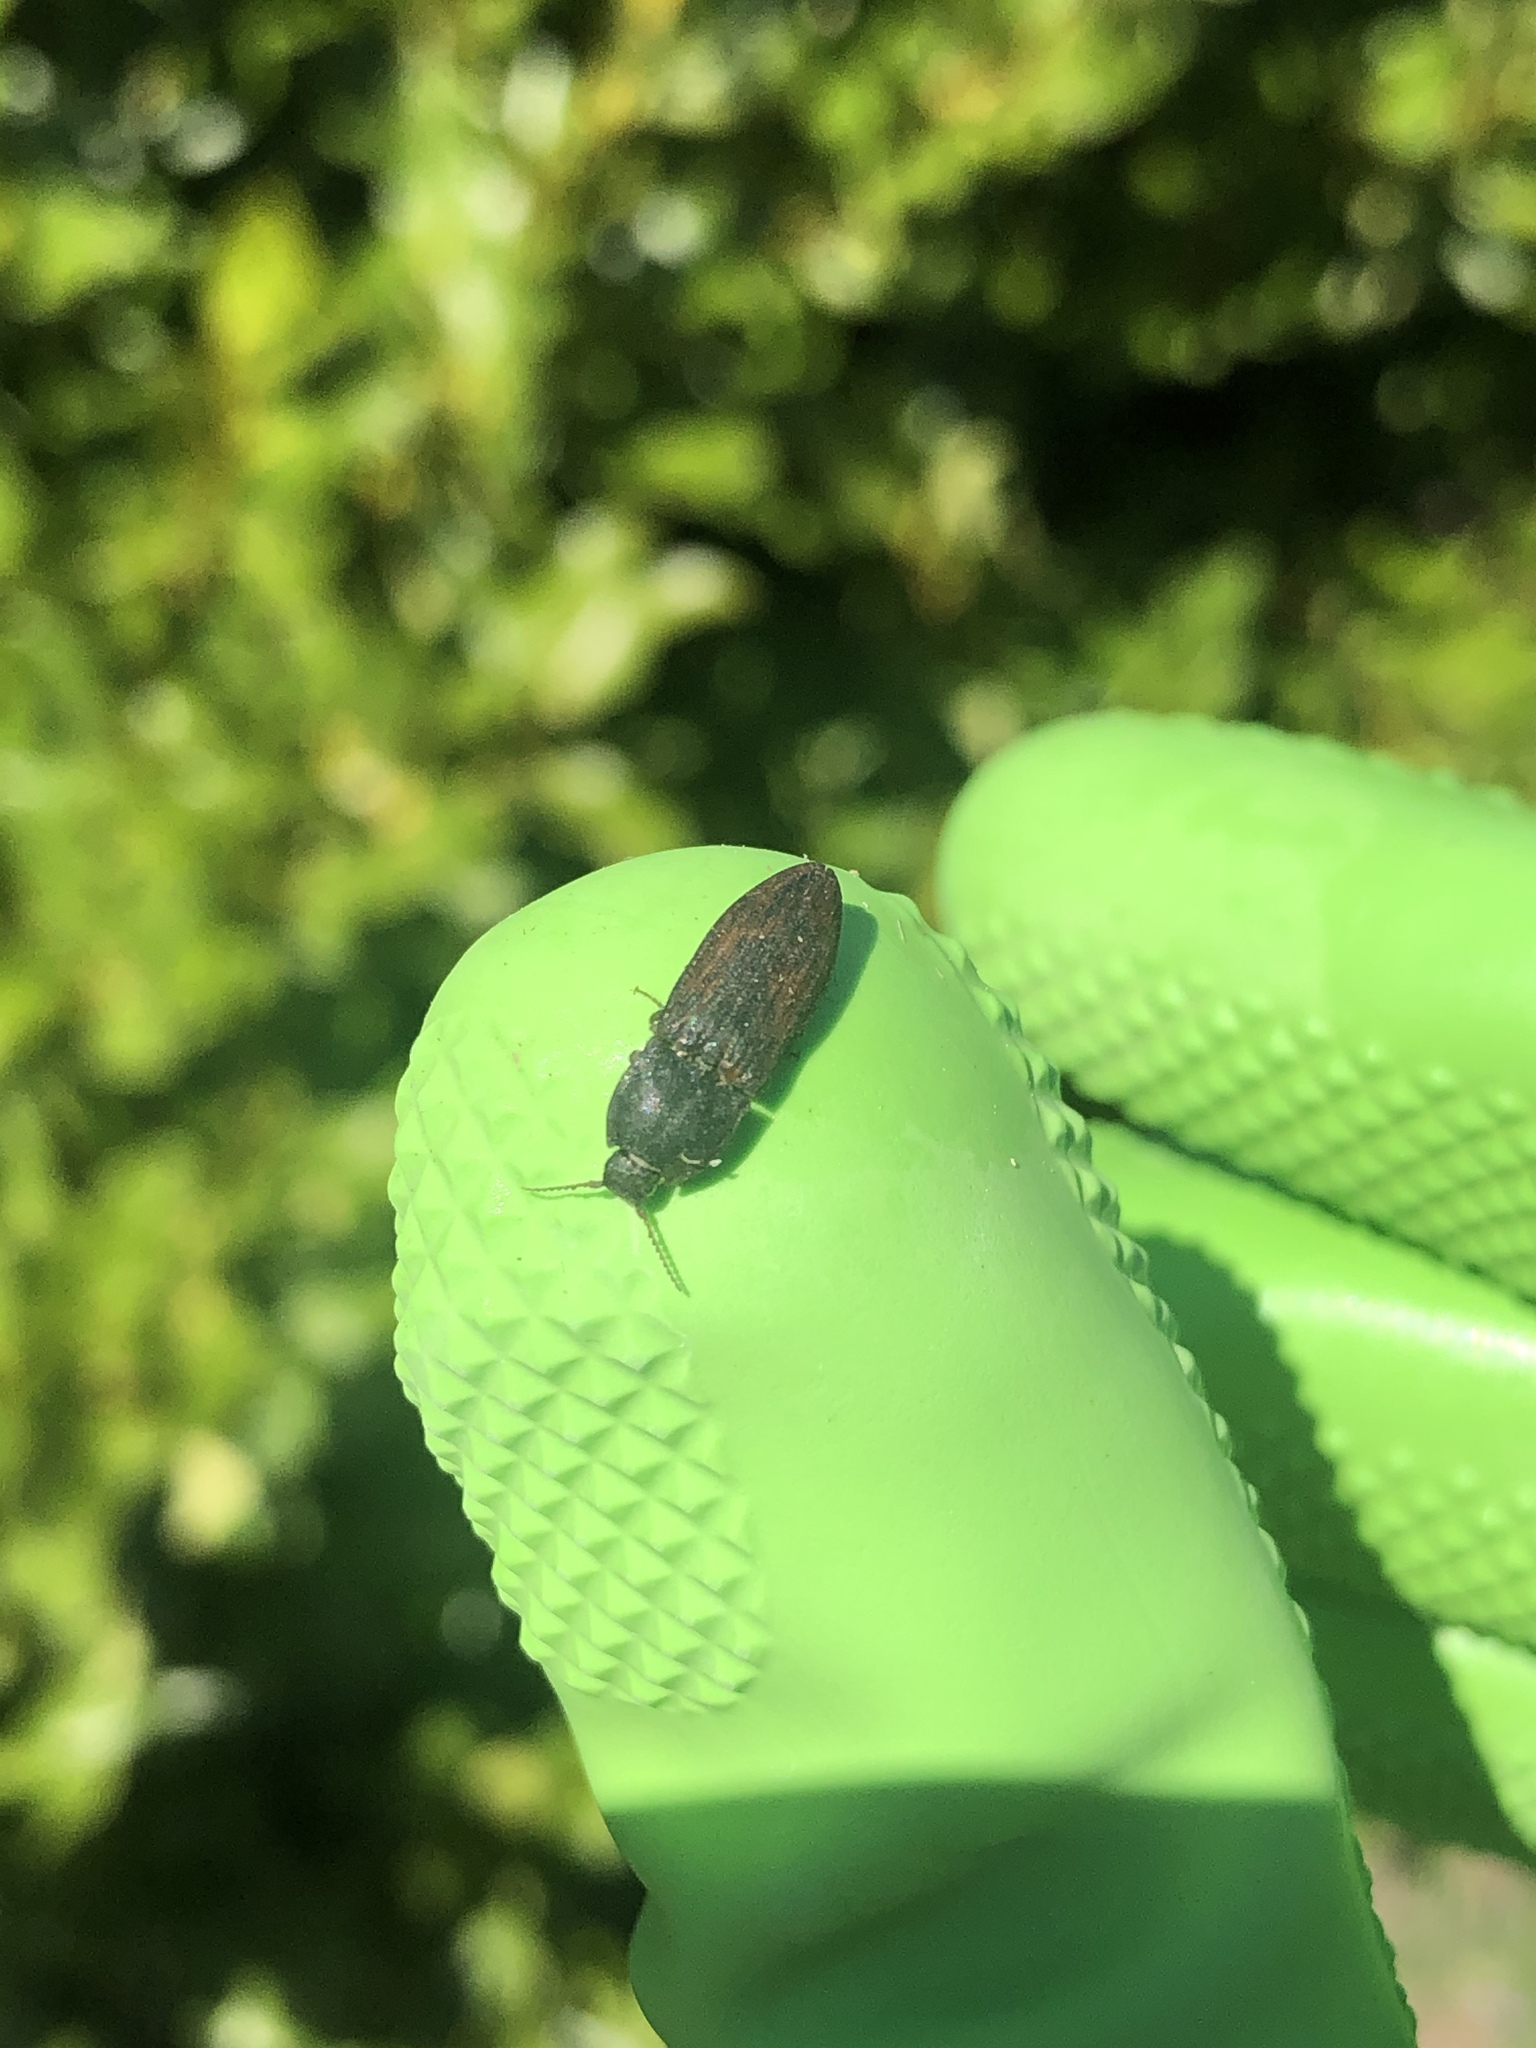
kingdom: Animalia
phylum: Arthropoda
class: Insecta
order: Coleoptera
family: Elateridae
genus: Agrypnus
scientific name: Agrypnus
